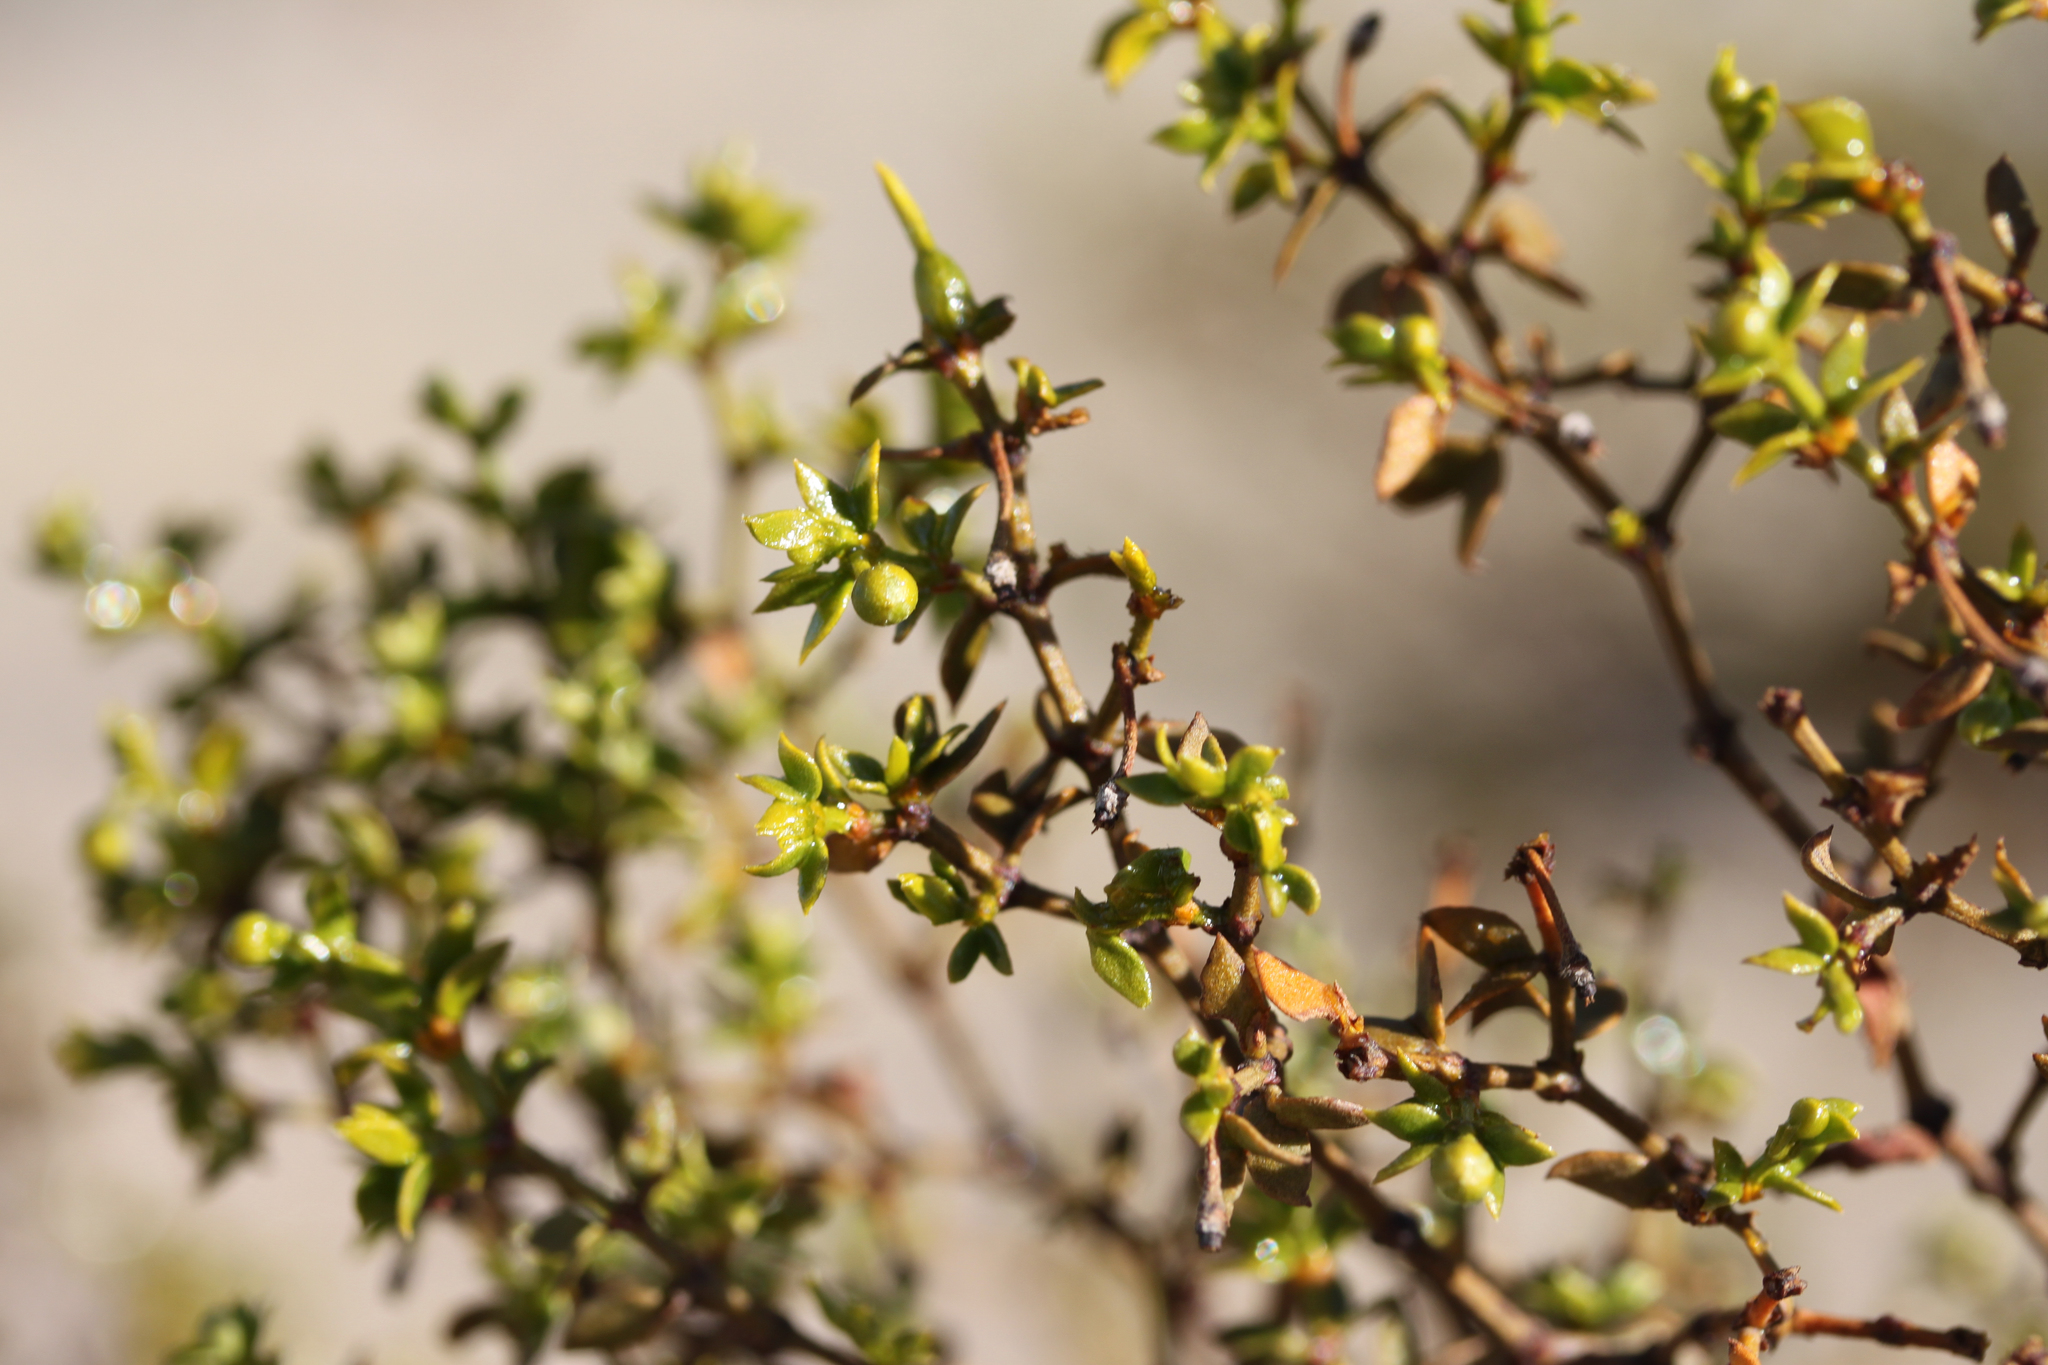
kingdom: Plantae
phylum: Tracheophyta
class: Magnoliopsida
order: Zygophyllales
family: Zygophyllaceae
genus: Larrea
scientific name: Larrea tridentata
